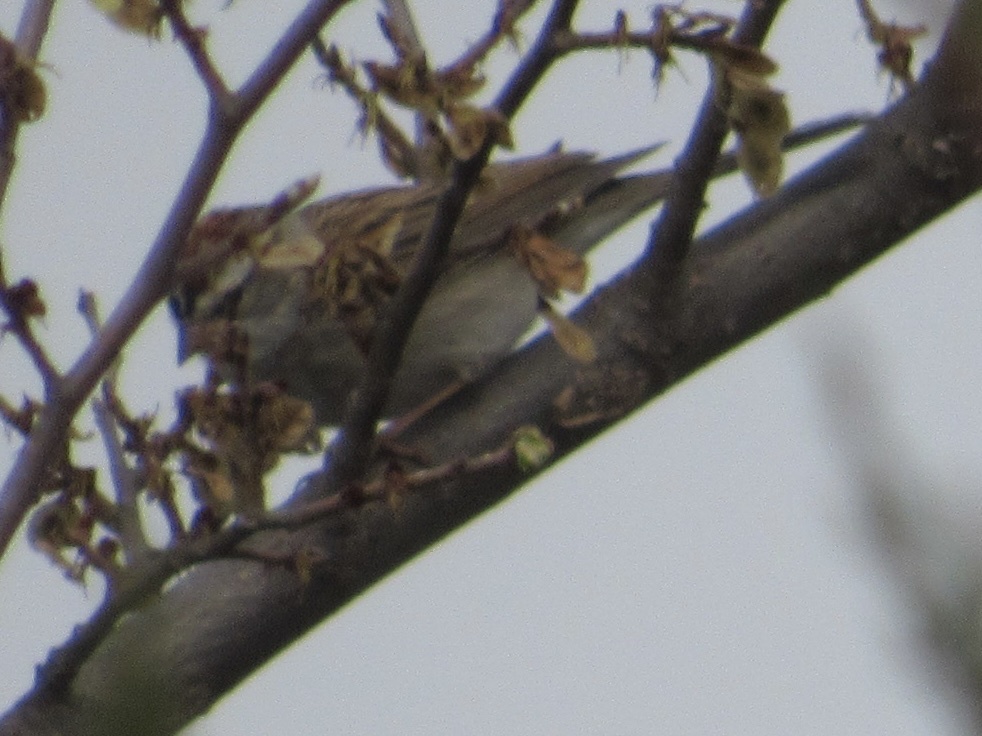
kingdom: Animalia
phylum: Chordata
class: Aves
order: Passeriformes
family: Passerellidae
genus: Spizella
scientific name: Spizella passerina
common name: Chipping sparrow
